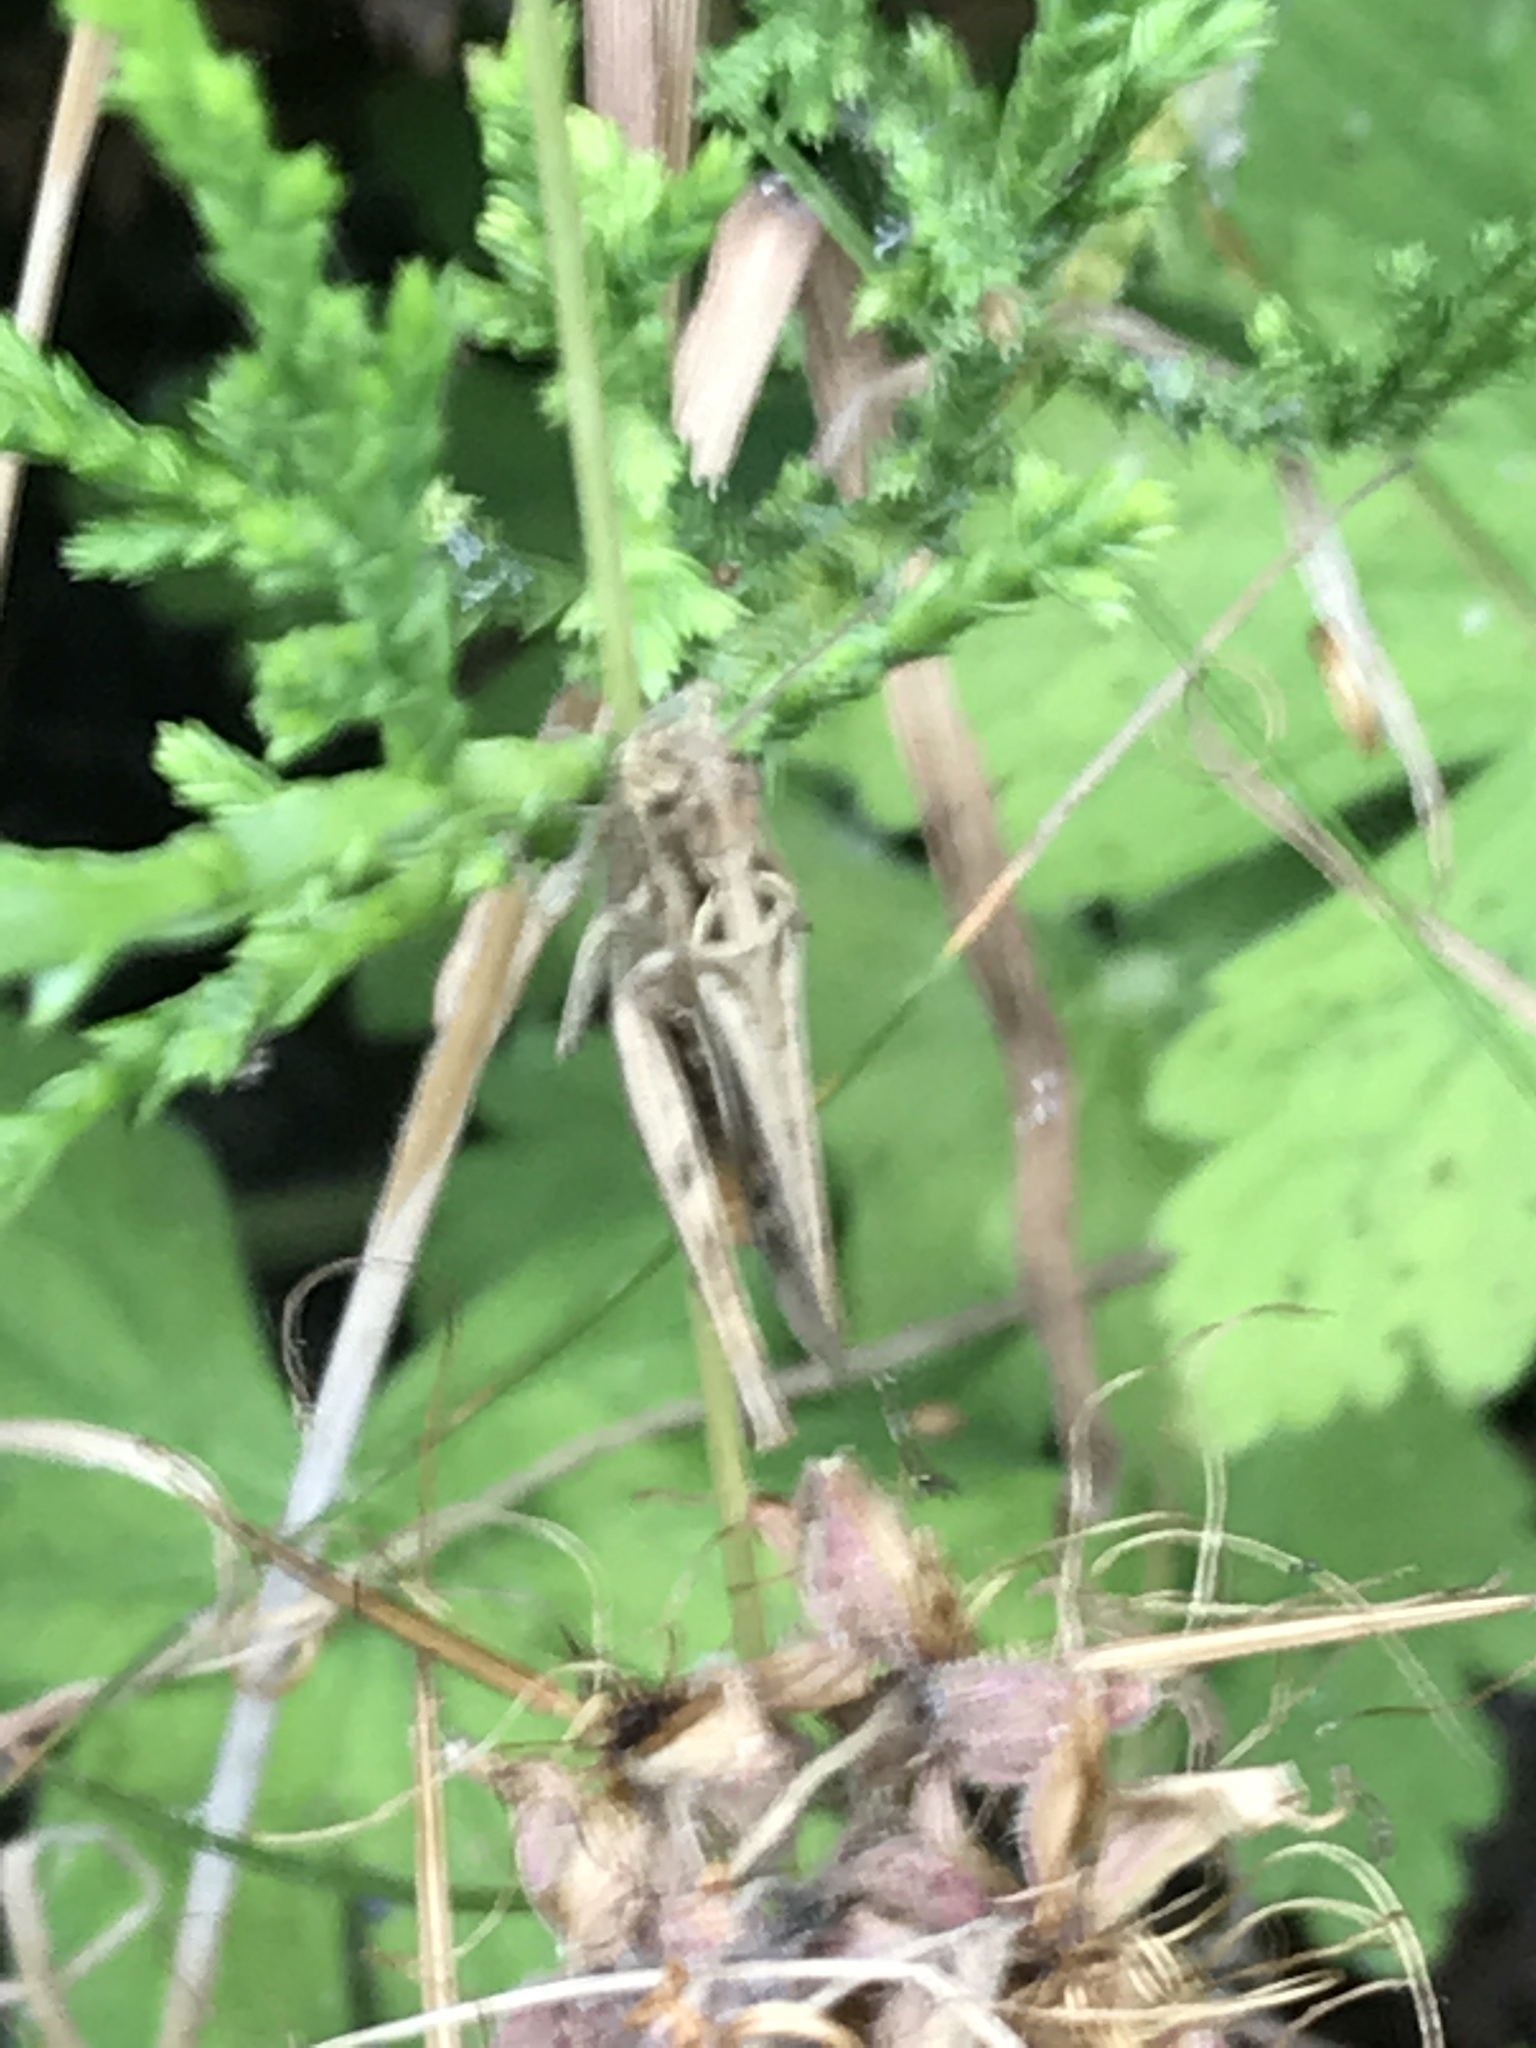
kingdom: Animalia
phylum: Arthropoda
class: Insecta
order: Orthoptera
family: Acrididae
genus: Chorthippus
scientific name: Chorthippus brunneus
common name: Field grasshopper
